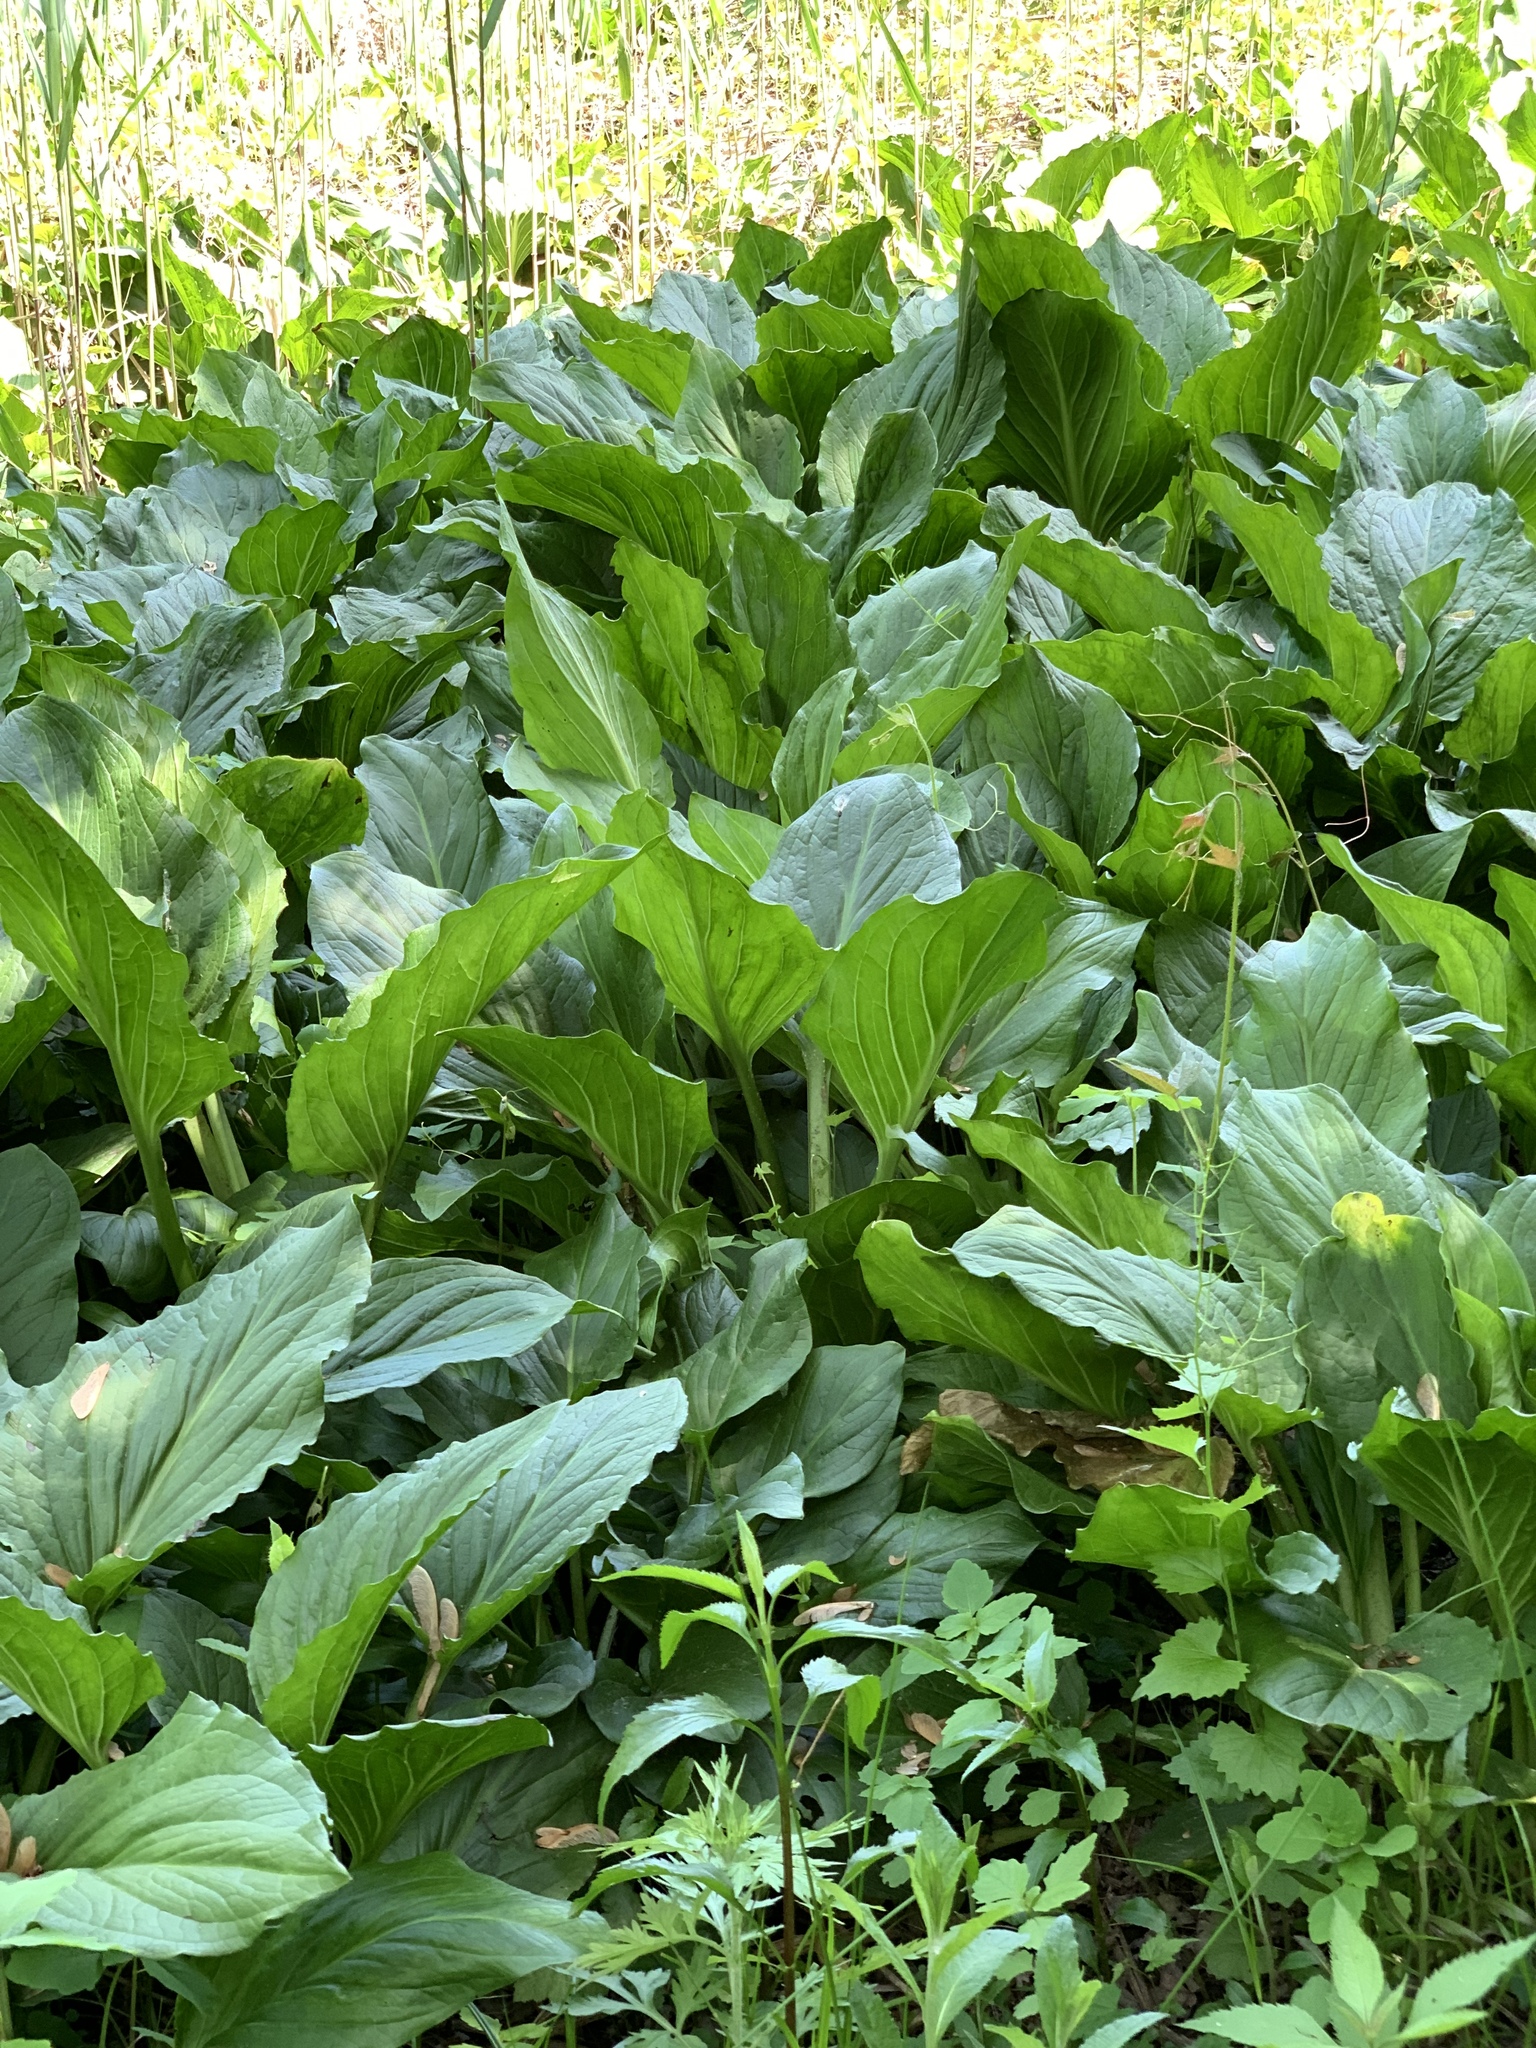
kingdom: Plantae
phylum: Tracheophyta
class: Liliopsida
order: Alismatales
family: Araceae
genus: Symplocarpus
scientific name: Symplocarpus foetidus
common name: Eastern skunk cabbage
